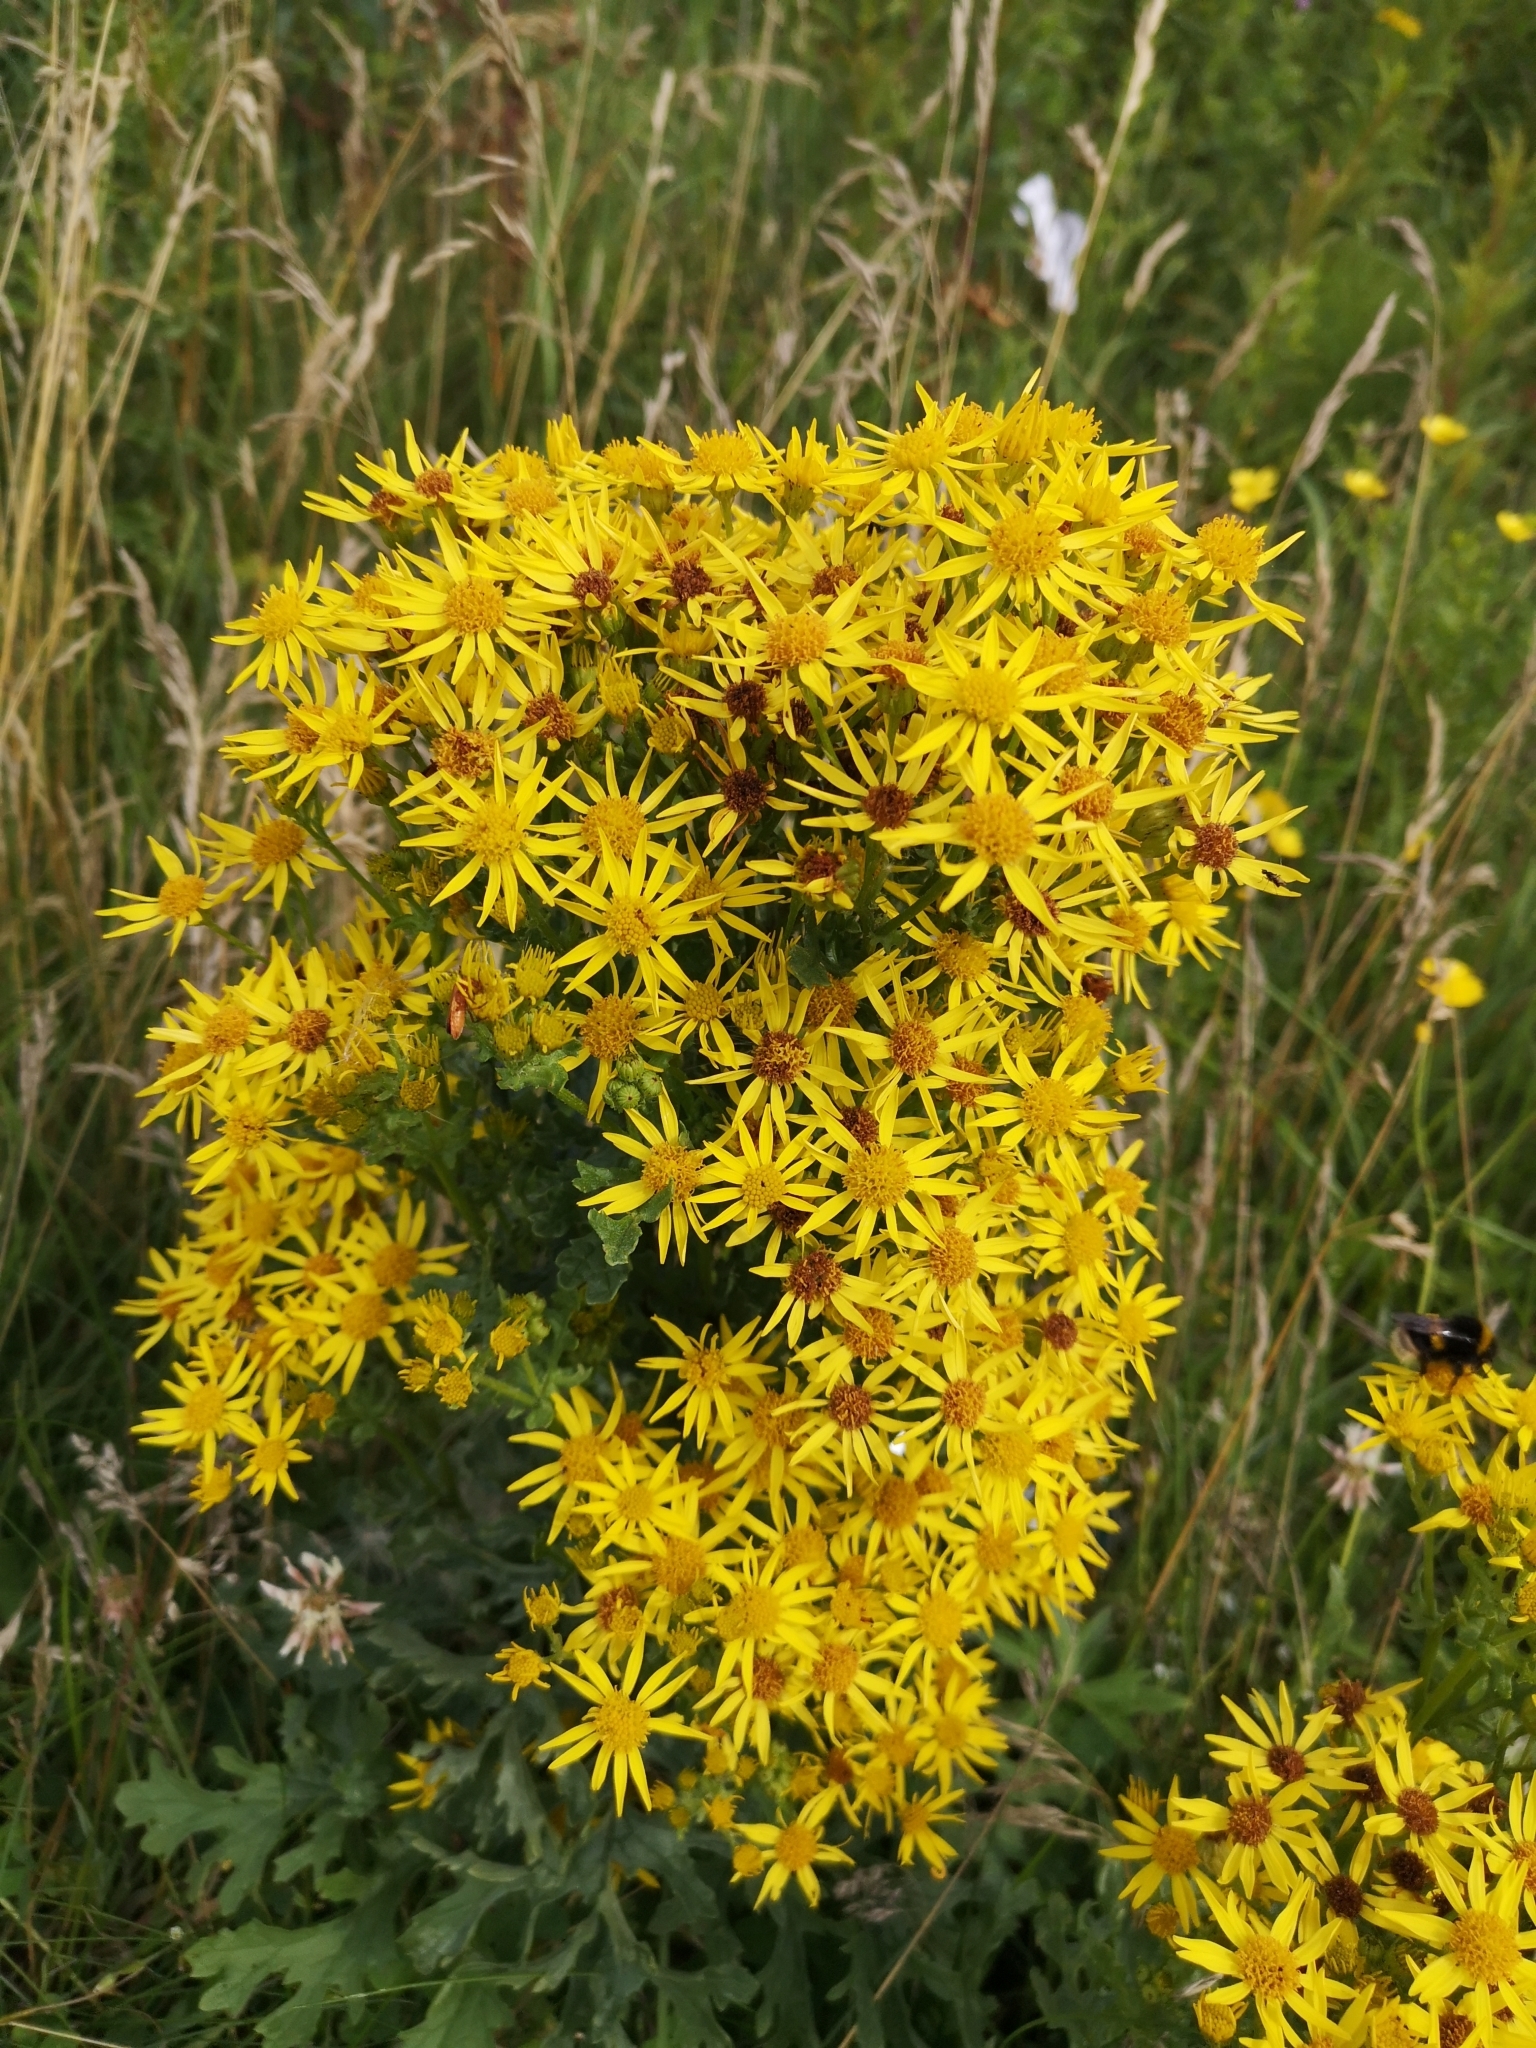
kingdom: Plantae
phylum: Tracheophyta
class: Magnoliopsida
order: Asterales
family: Asteraceae
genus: Jacobaea
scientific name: Jacobaea vulgaris
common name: Stinking willie
